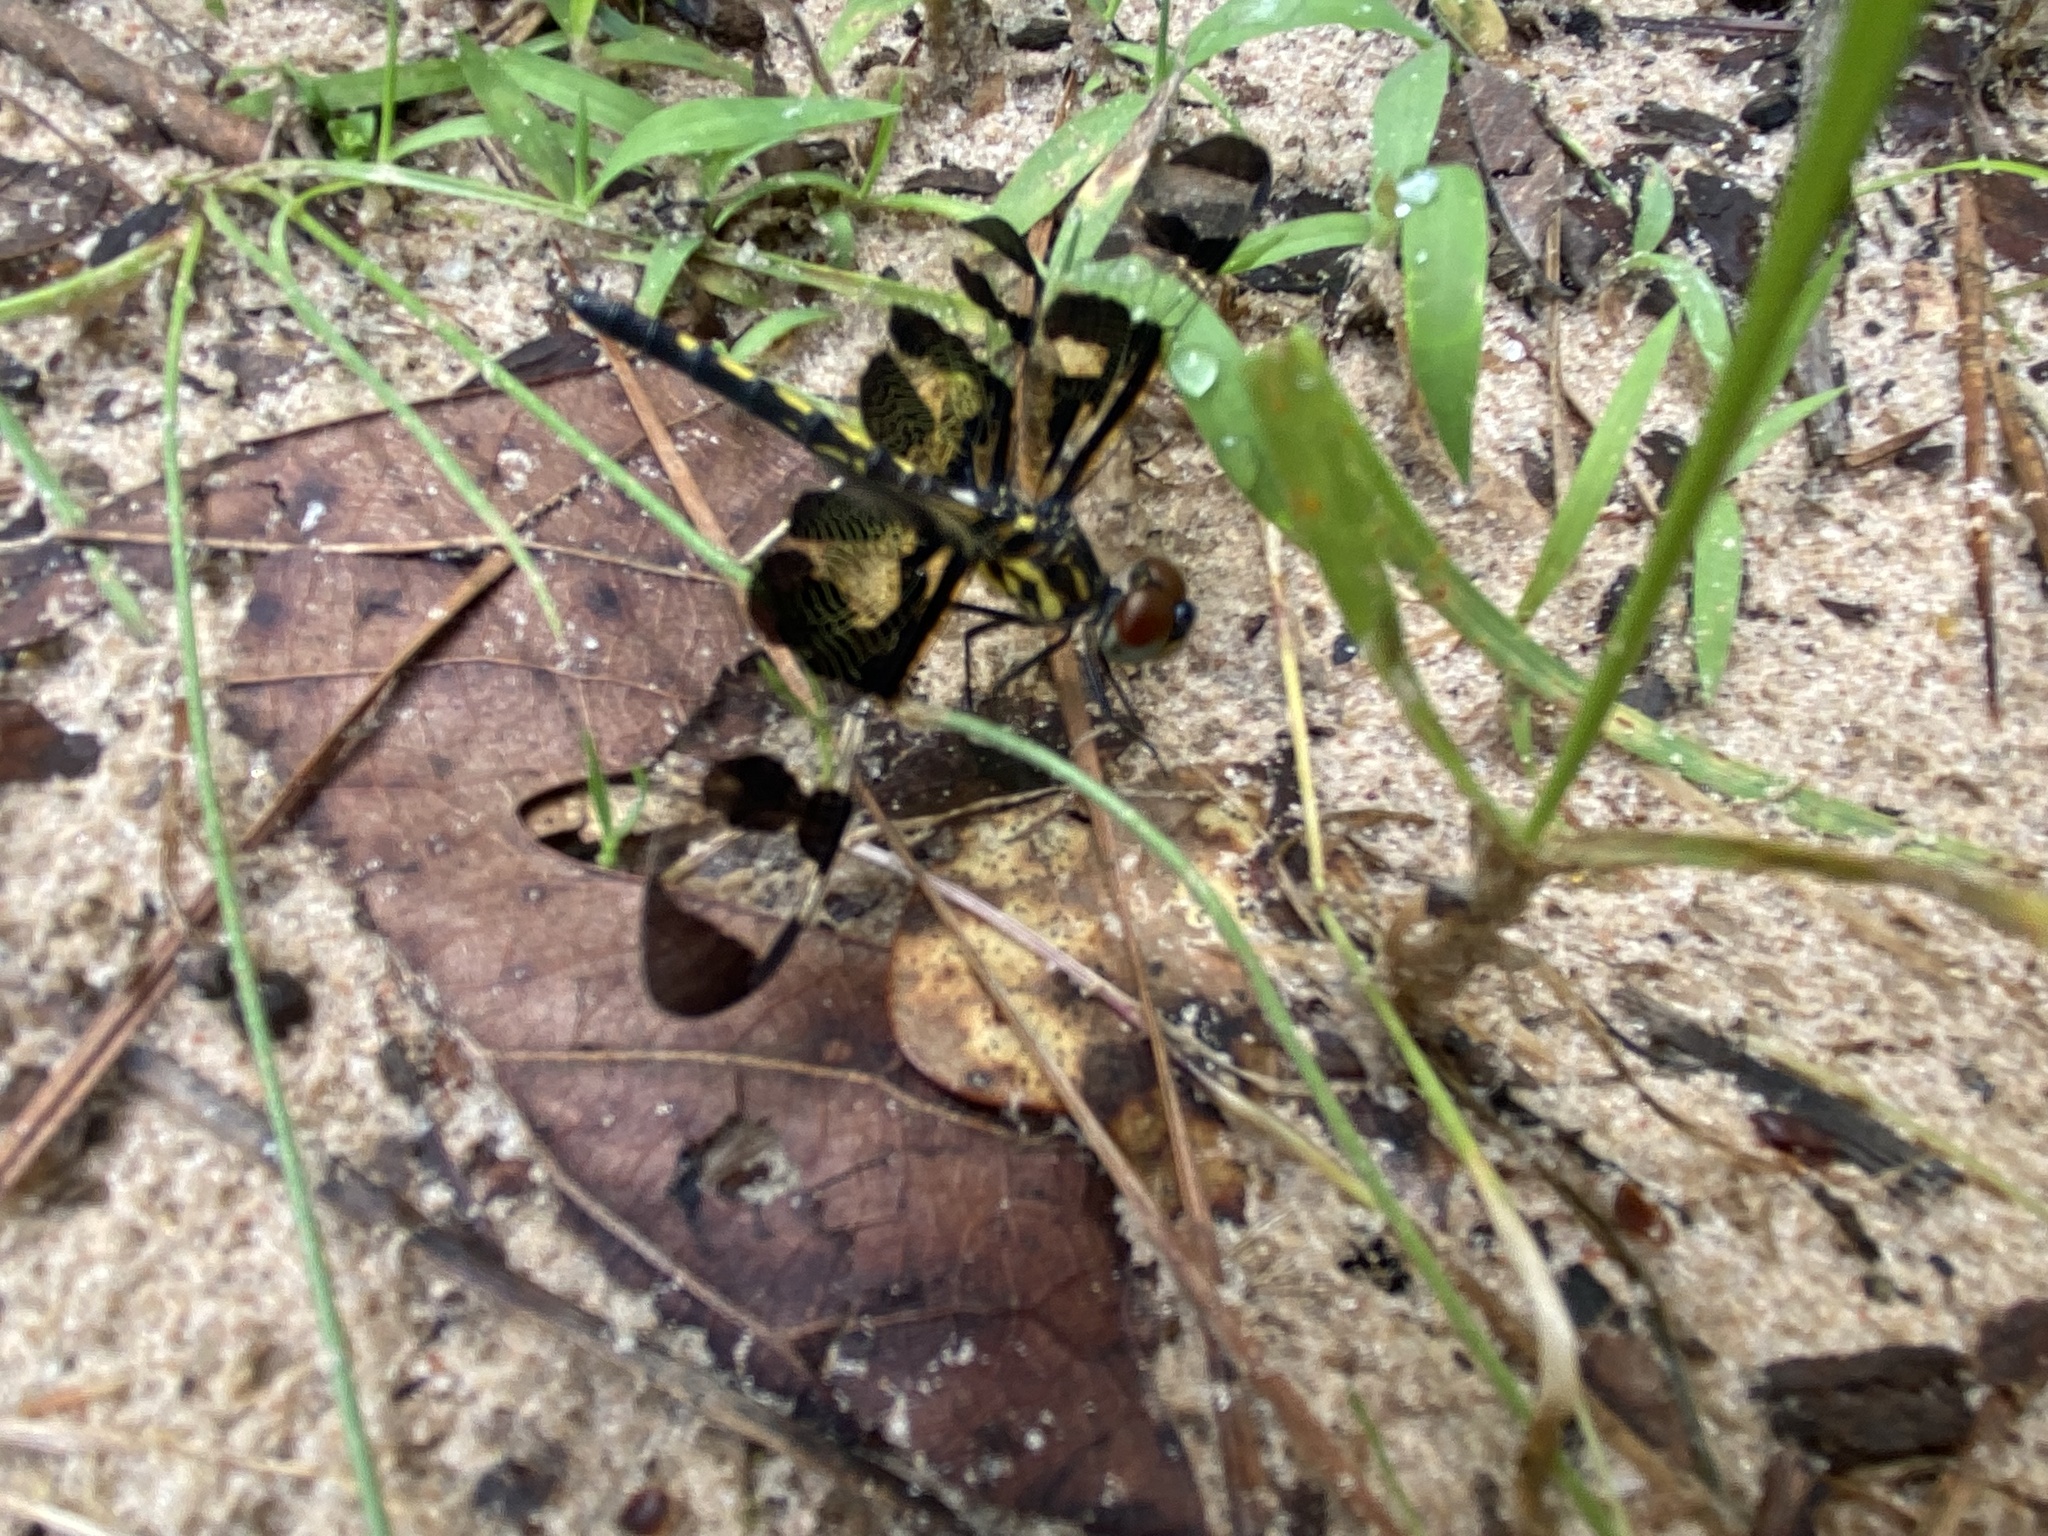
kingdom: Animalia
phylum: Arthropoda
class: Insecta
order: Odonata
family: Libellulidae
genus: Celithemis
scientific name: Celithemis fasciata
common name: Banded pennant
